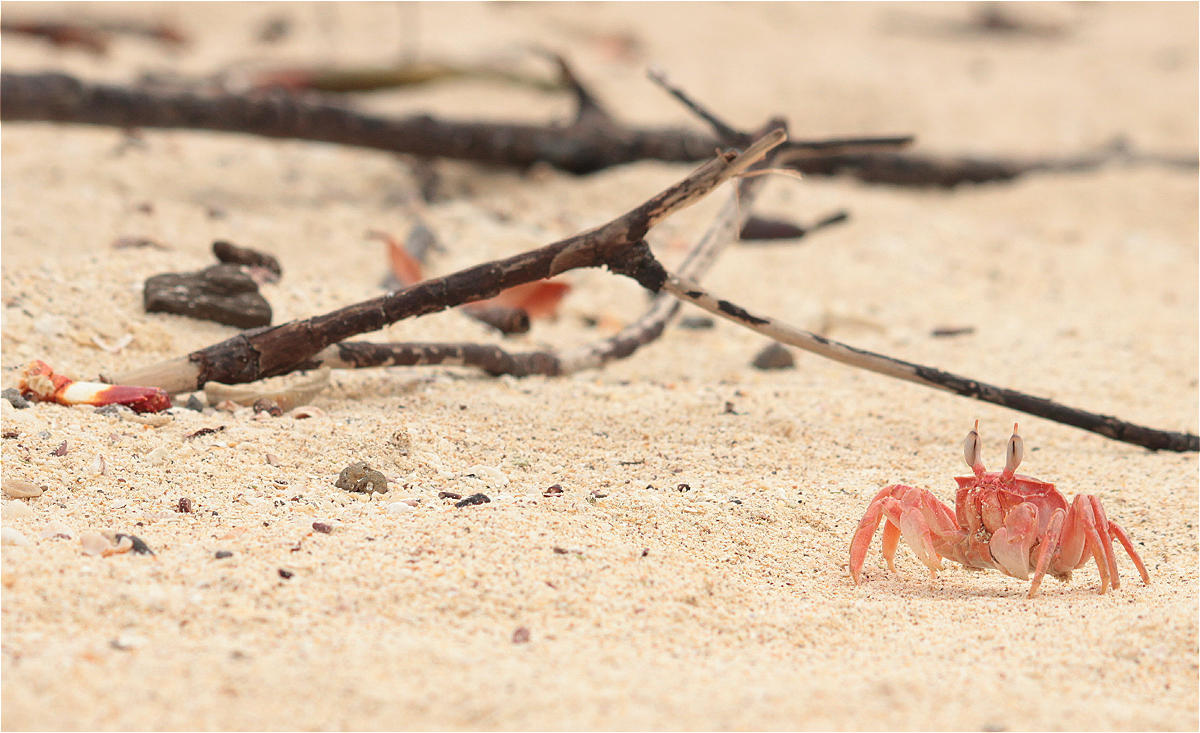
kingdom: Animalia
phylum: Arthropoda
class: Malacostraca
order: Decapoda
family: Ocypodidae
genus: Ocypode
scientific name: Ocypode gaudichaudii
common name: Pacific ghost crab
